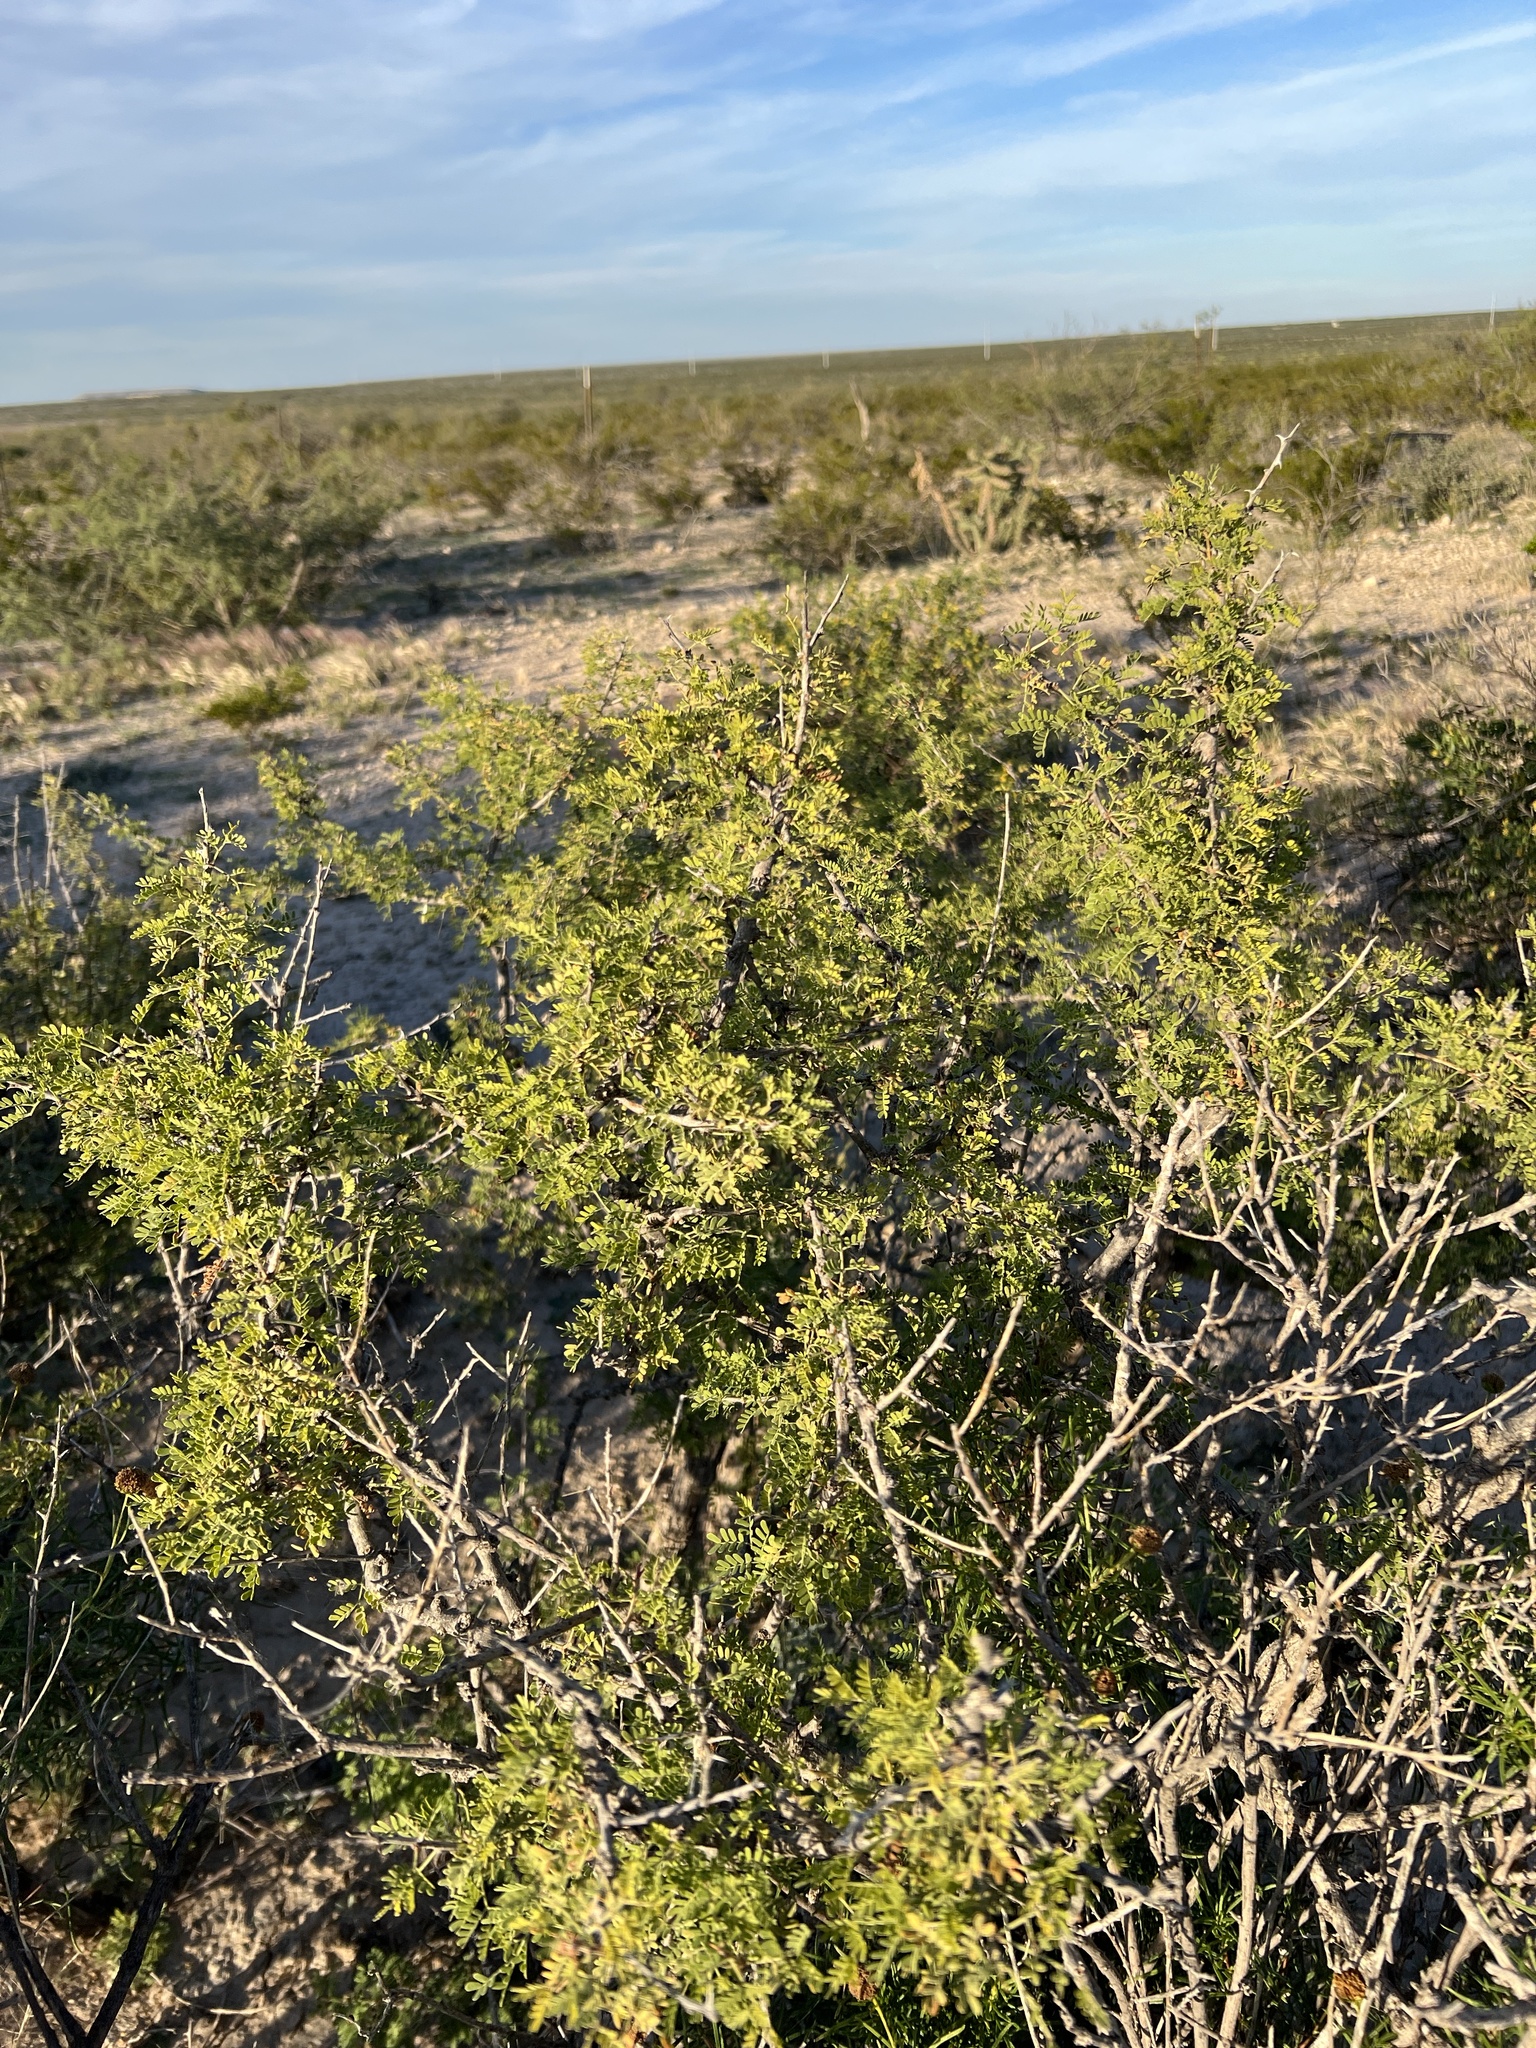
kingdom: Plantae
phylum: Tracheophyta
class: Magnoliopsida
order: Fabales
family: Fabaceae
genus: Senegalia
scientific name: Senegalia greggii
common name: Texas-mimosa
